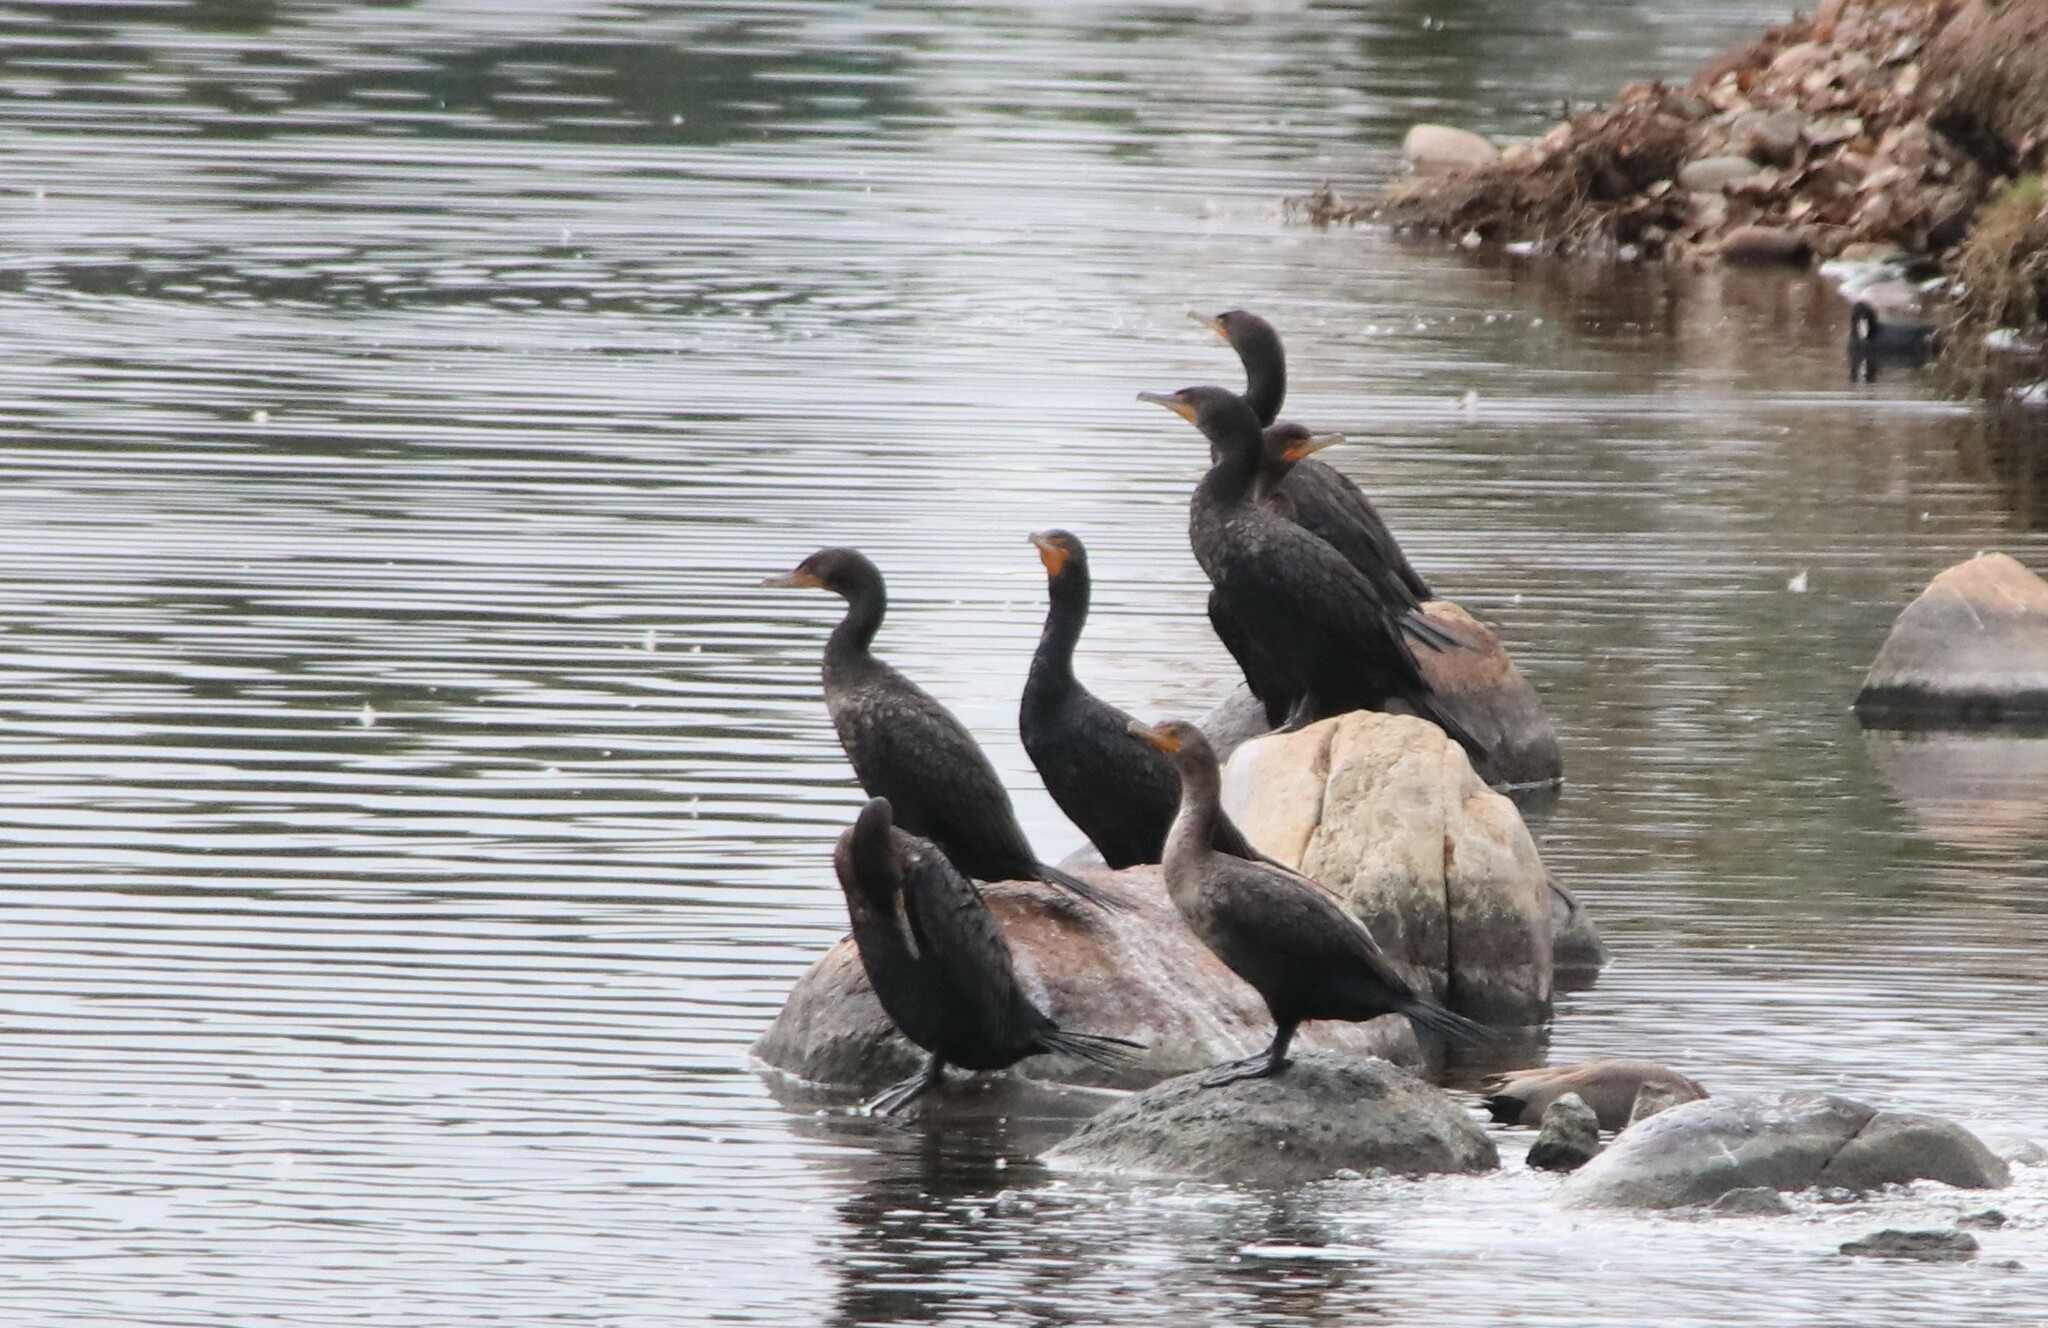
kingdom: Animalia
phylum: Chordata
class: Aves
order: Suliformes
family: Phalacrocoracidae
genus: Phalacrocorax
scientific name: Phalacrocorax auritus
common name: Double-crested cormorant
